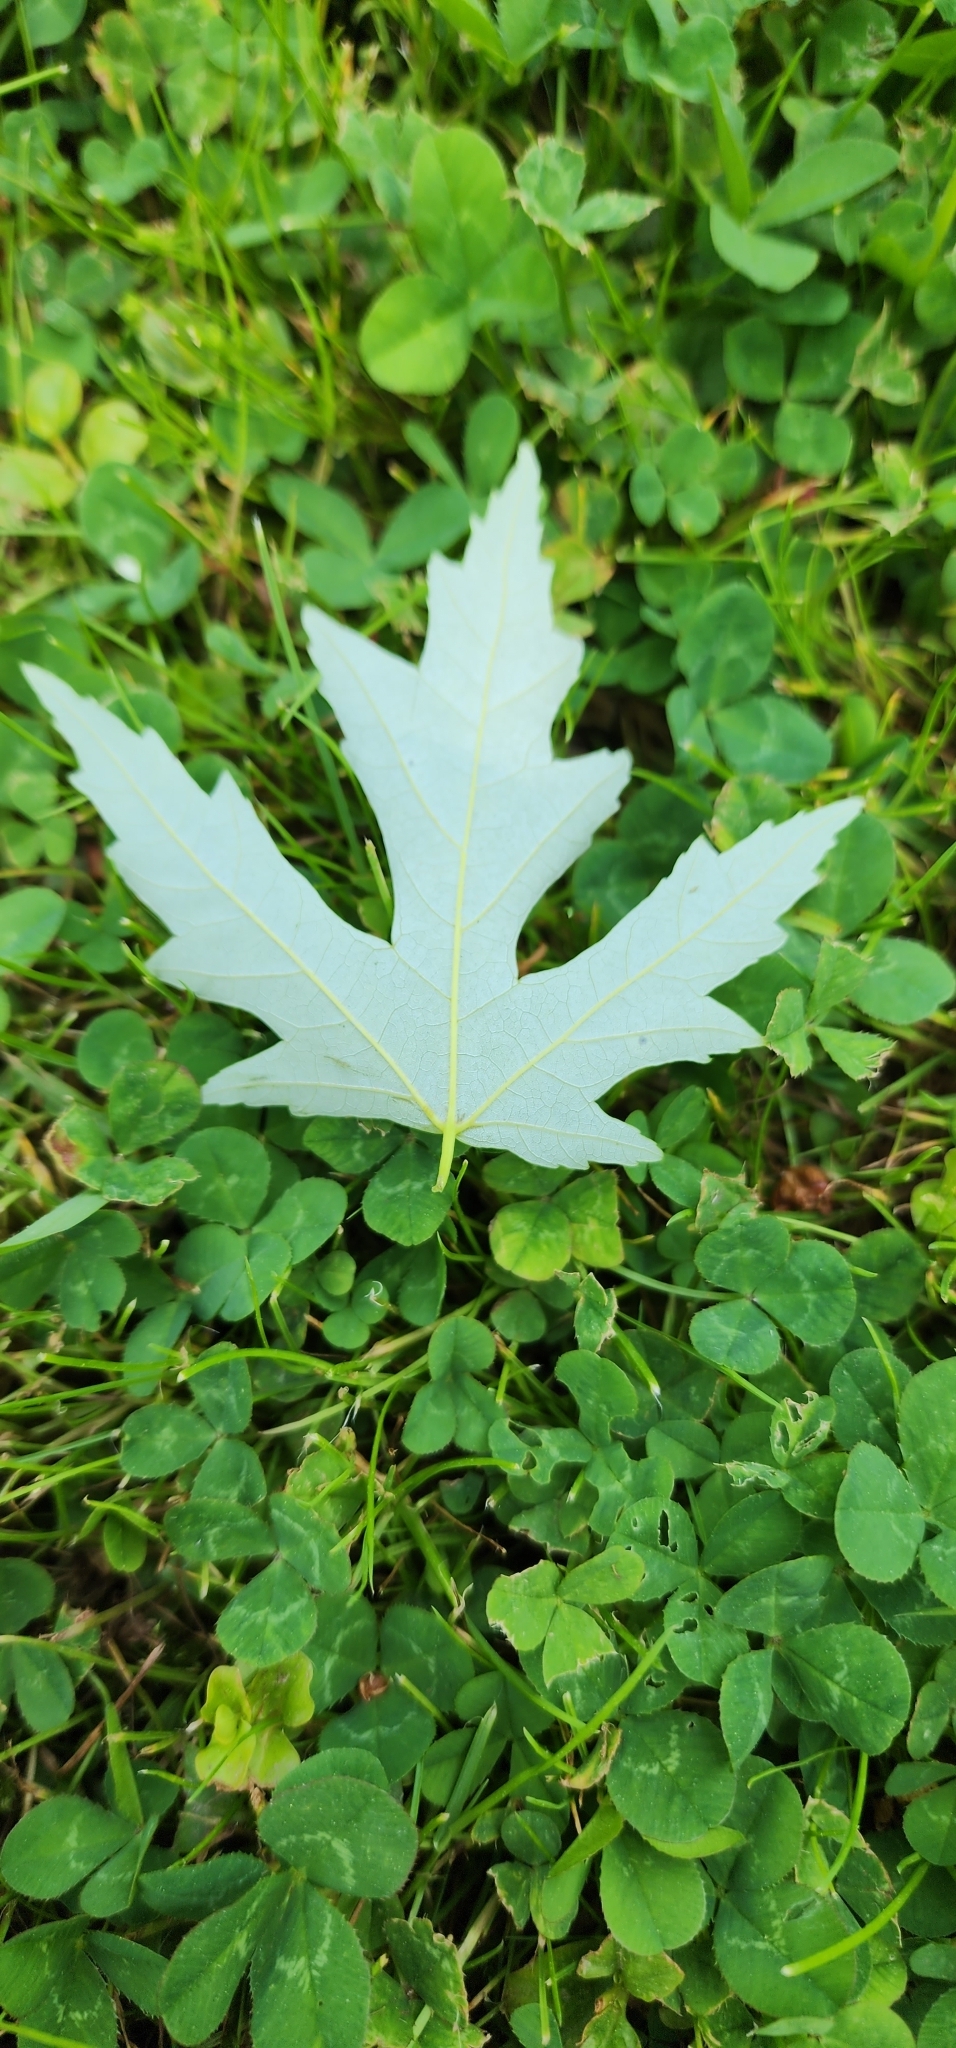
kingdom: Plantae
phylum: Tracheophyta
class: Magnoliopsida
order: Sapindales
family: Sapindaceae
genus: Acer
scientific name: Acer saccharinum
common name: Silver maple
